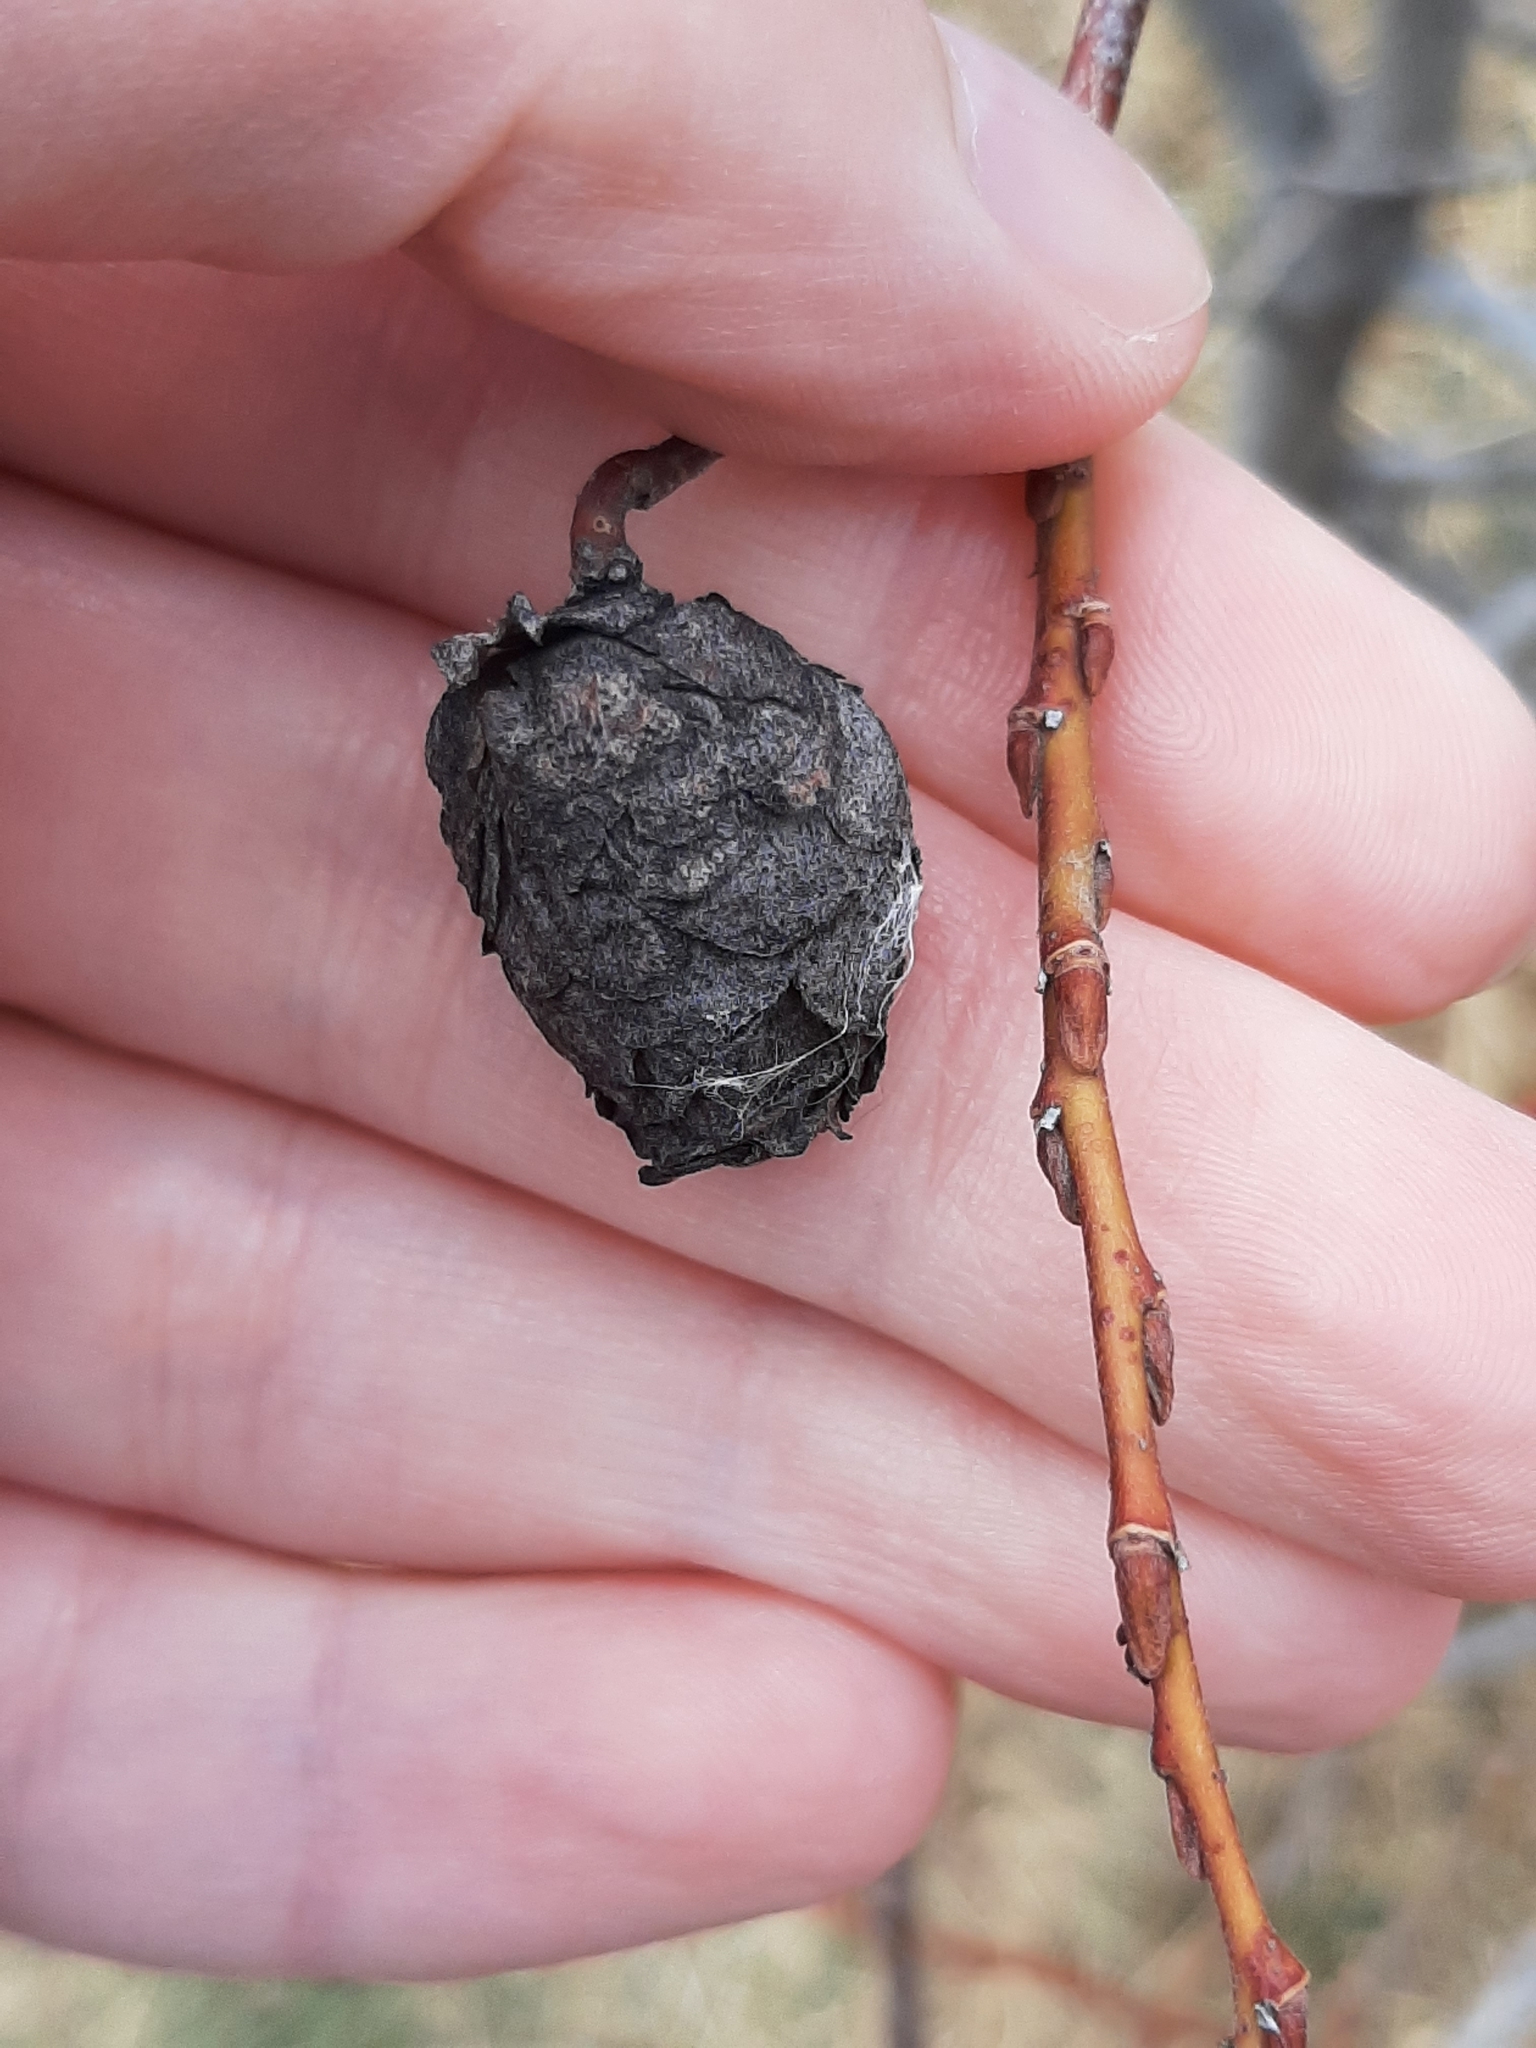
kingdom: Animalia
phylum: Arthropoda
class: Insecta
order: Diptera
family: Cecidomyiidae
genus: Rabdophaga
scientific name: Rabdophaga strobiloides
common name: Willow pinecone gall midge
